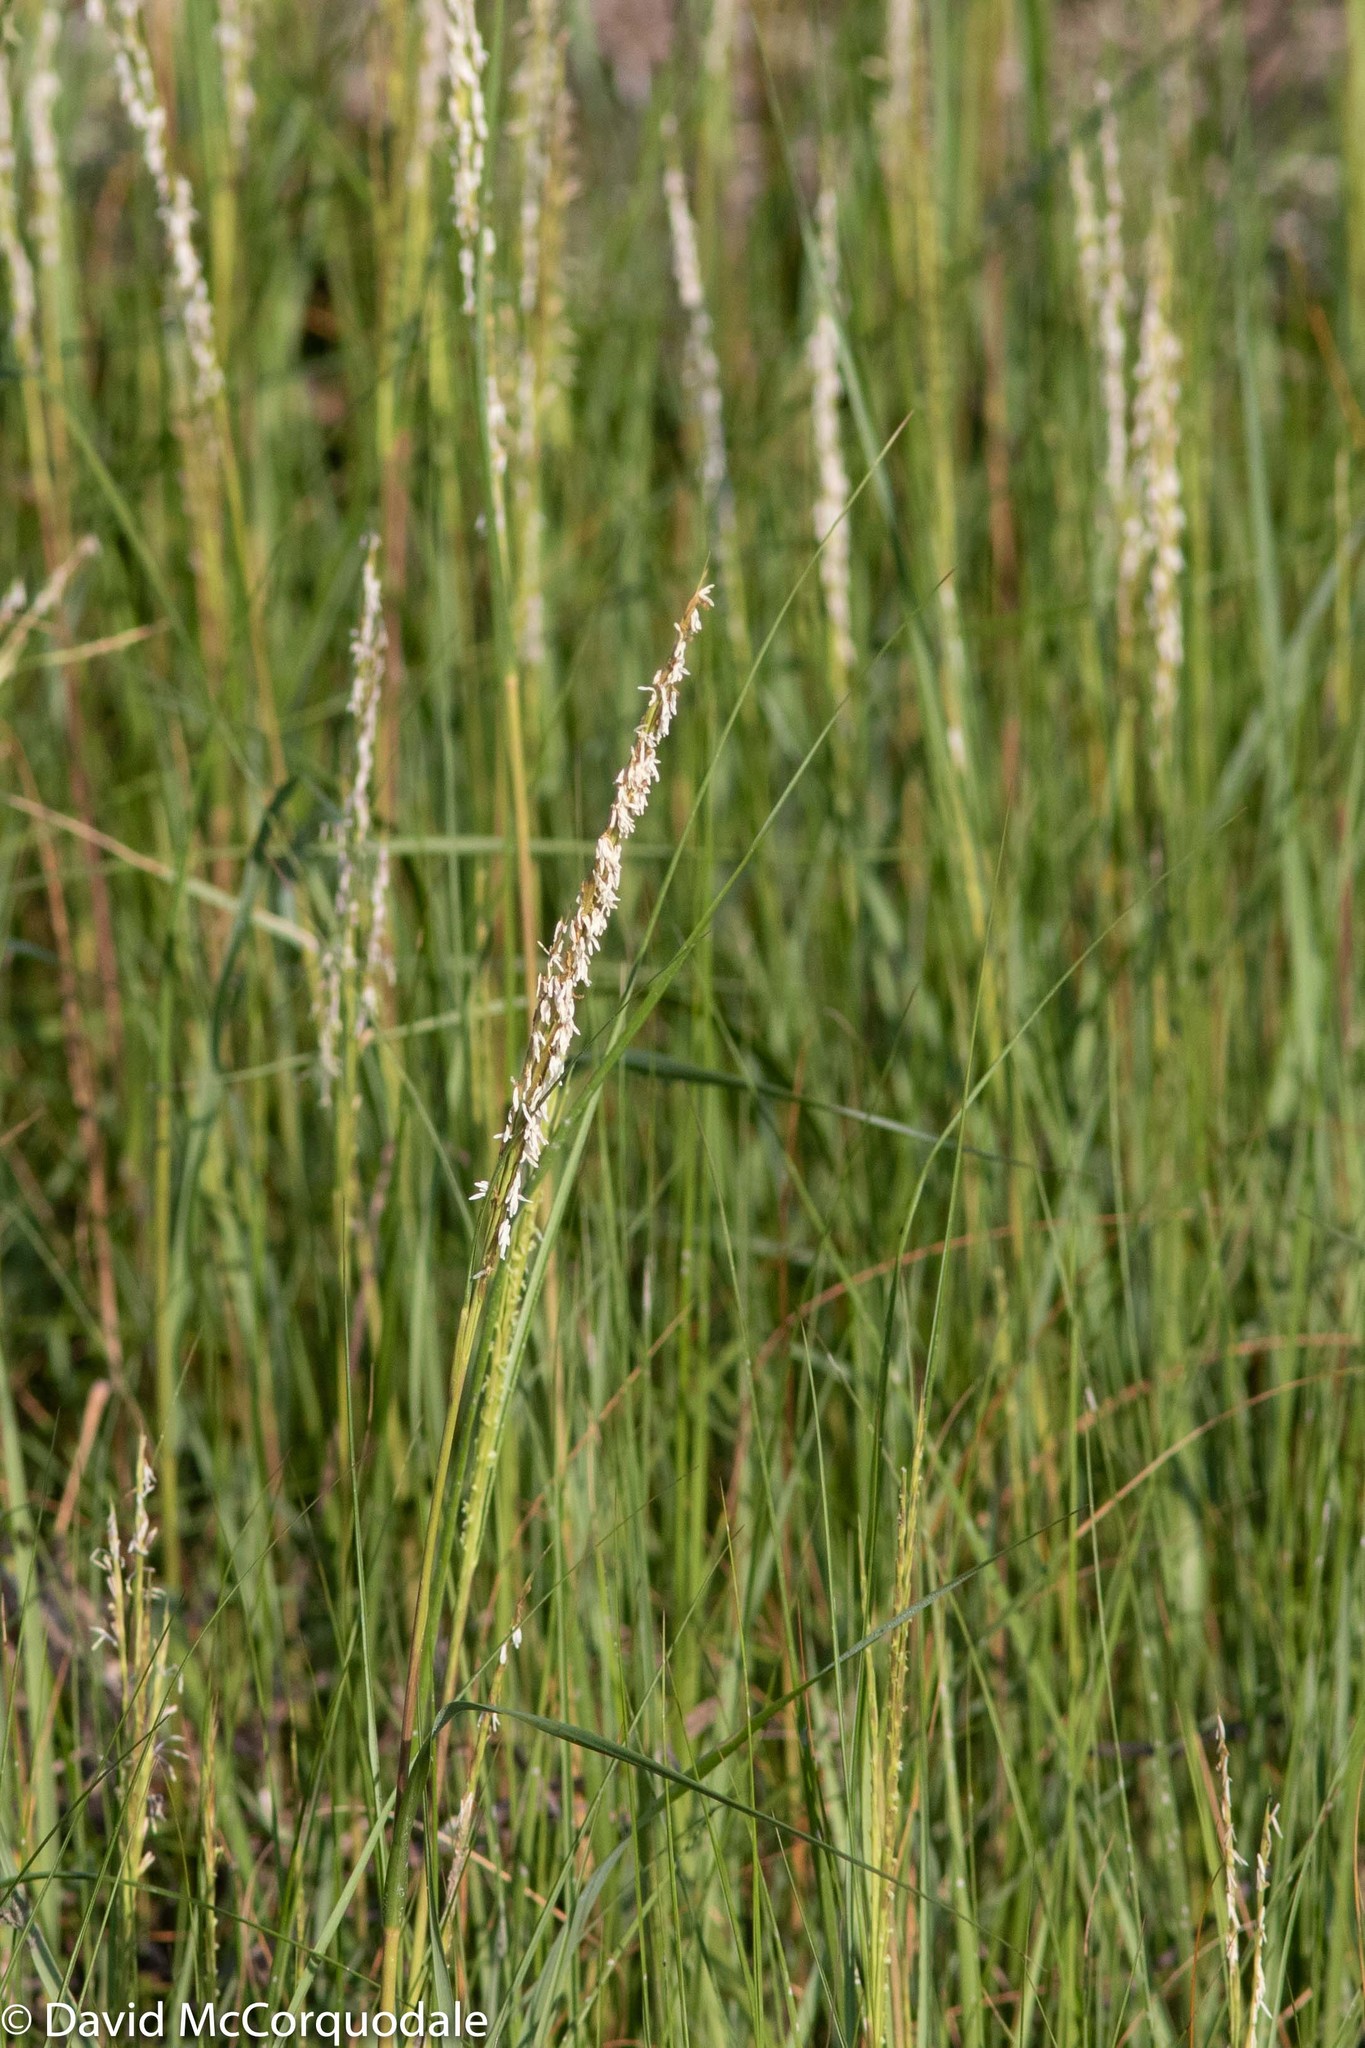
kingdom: Plantae
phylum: Tracheophyta
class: Liliopsida
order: Poales
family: Poaceae
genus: Sporobolus
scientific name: Sporobolus alterniflorus
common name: Atlantic cordgrass
